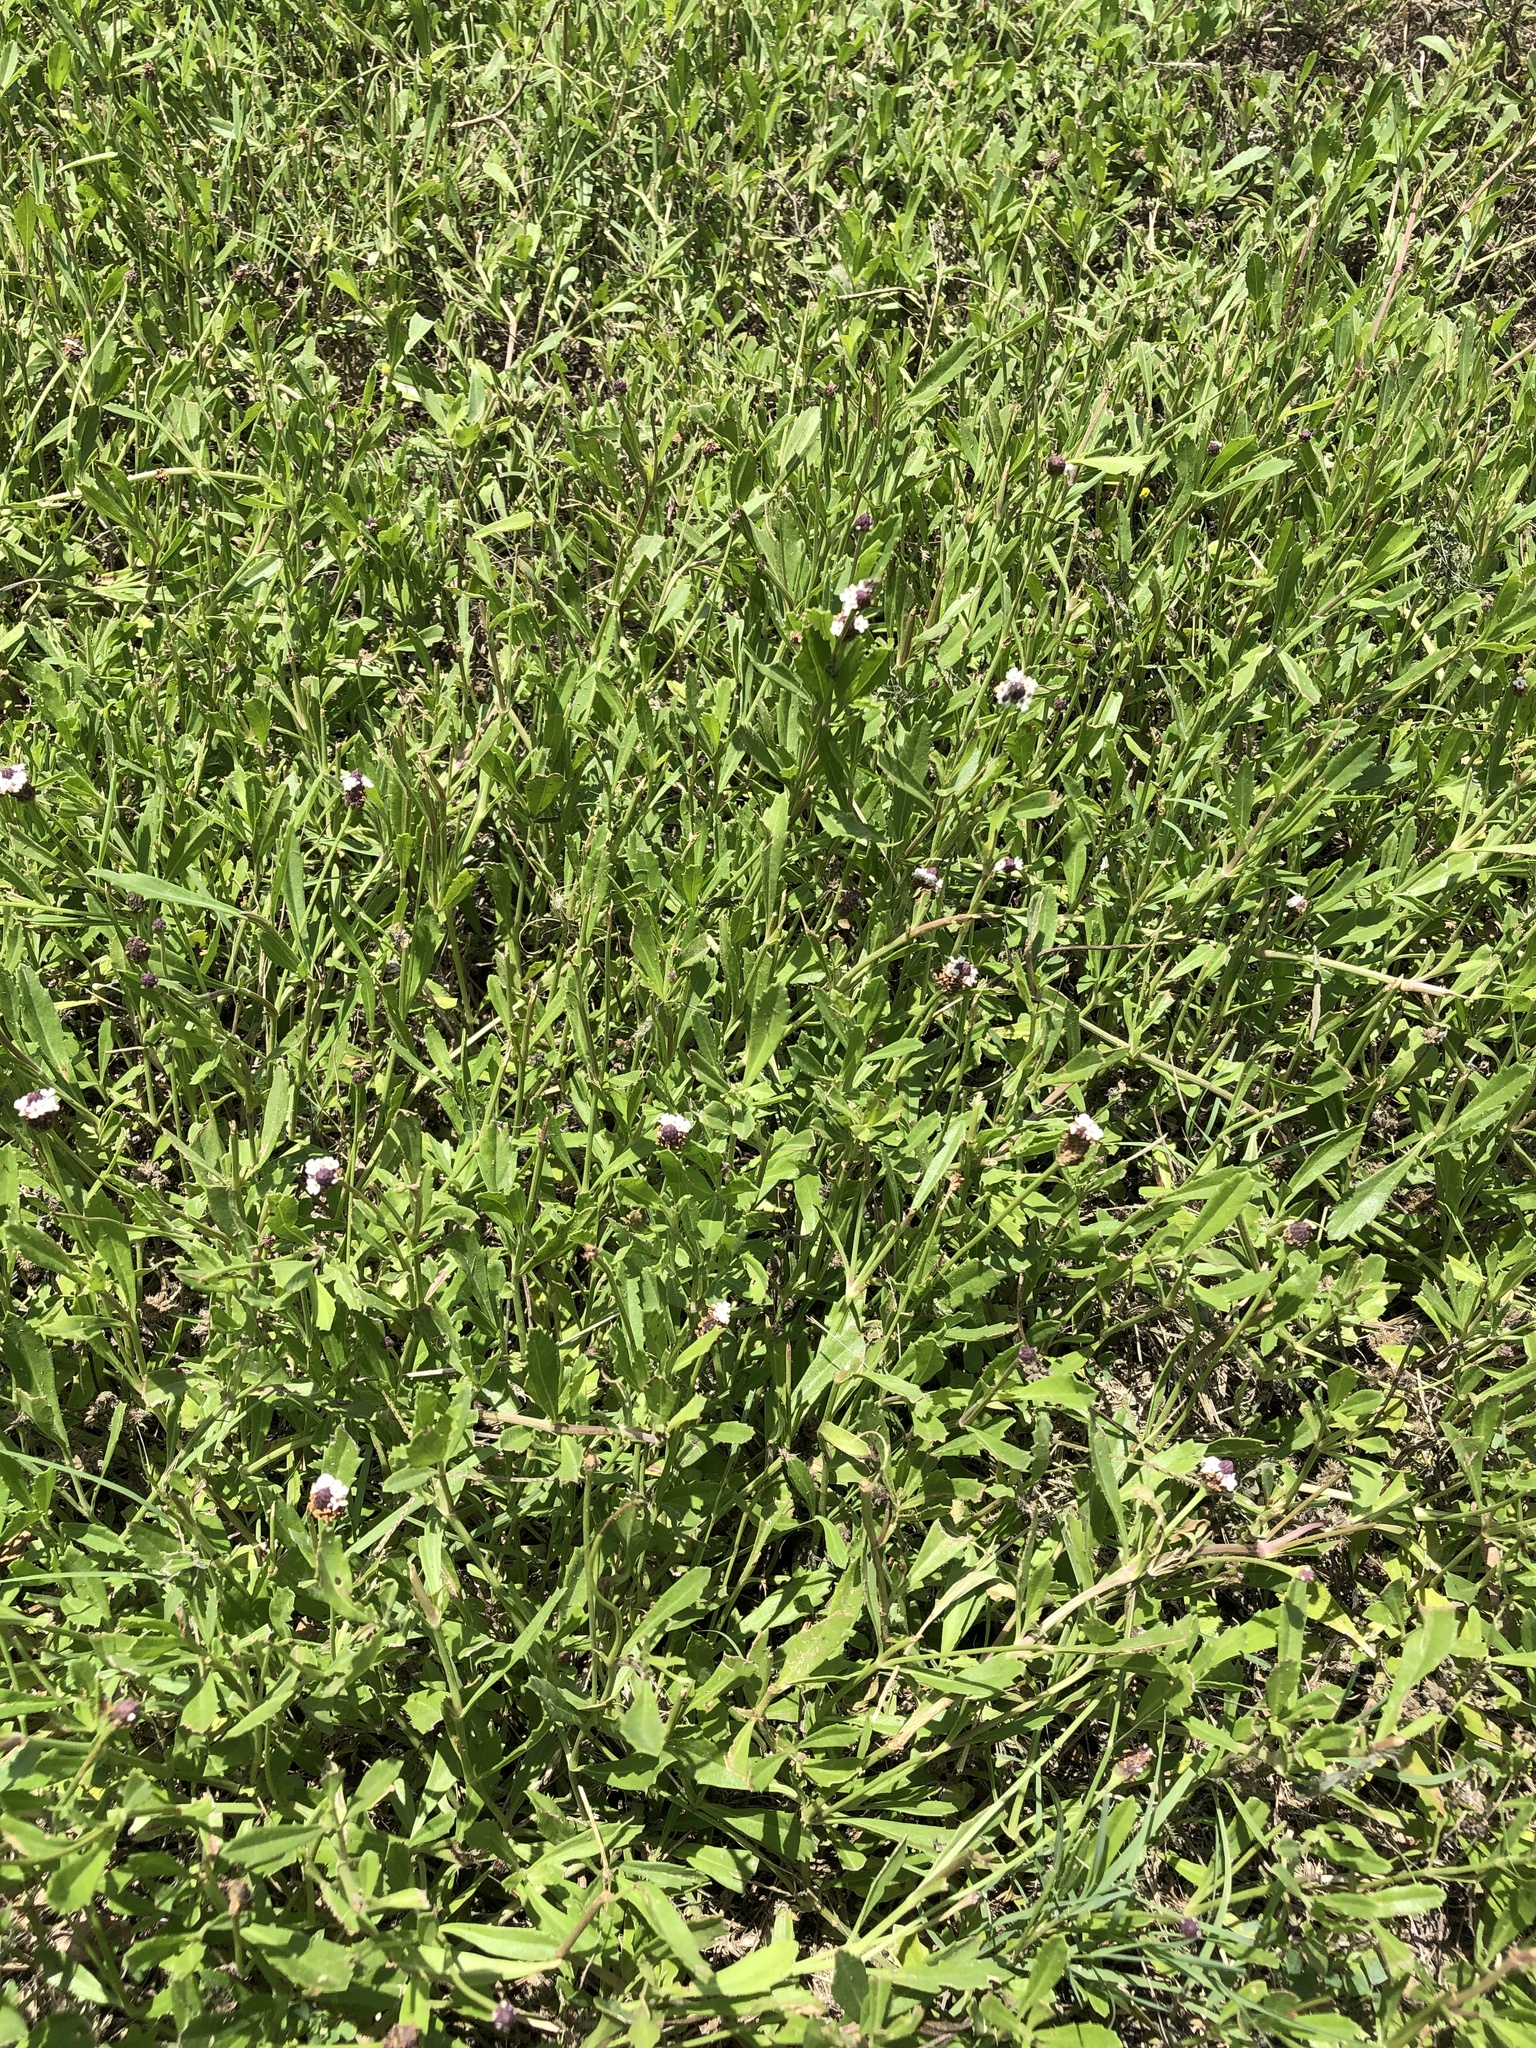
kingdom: Plantae
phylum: Tracheophyta
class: Magnoliopsida
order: Lamiales
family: Verbenaceae
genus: Phyla
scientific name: Phyla nodiflora
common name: Frogfruit
